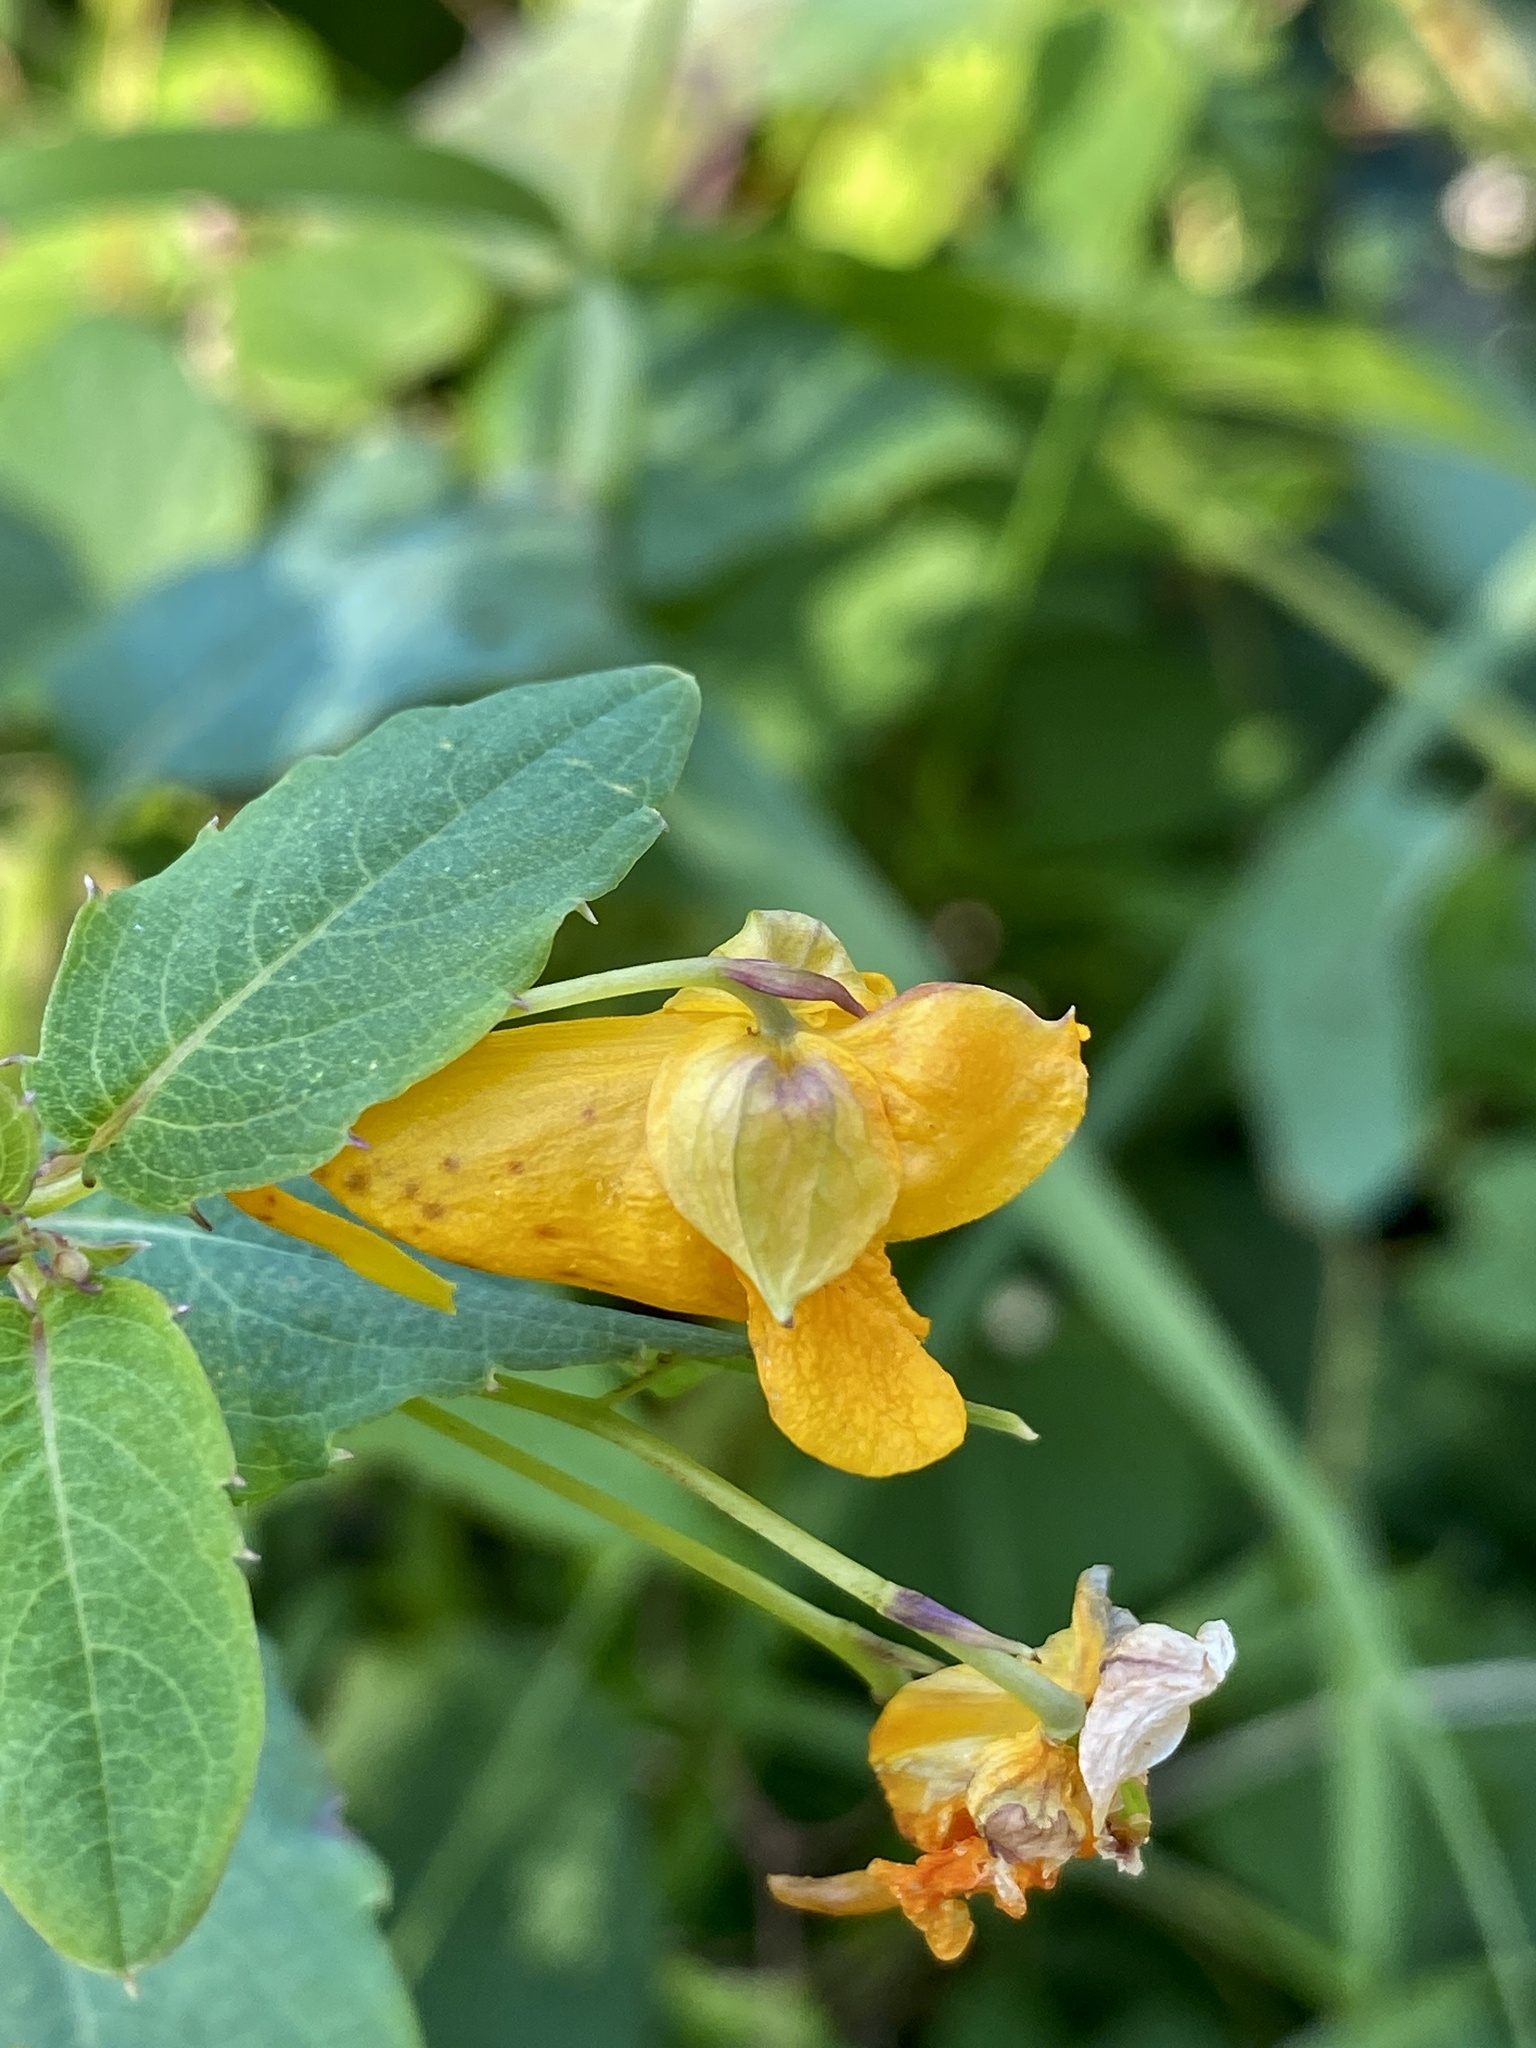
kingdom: Plantae
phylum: Tracheophyta
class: Magnoliopsida
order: Ericales
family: Balsaminaceae
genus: Impatiens
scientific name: Impatiens capensis
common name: Orange balsam
